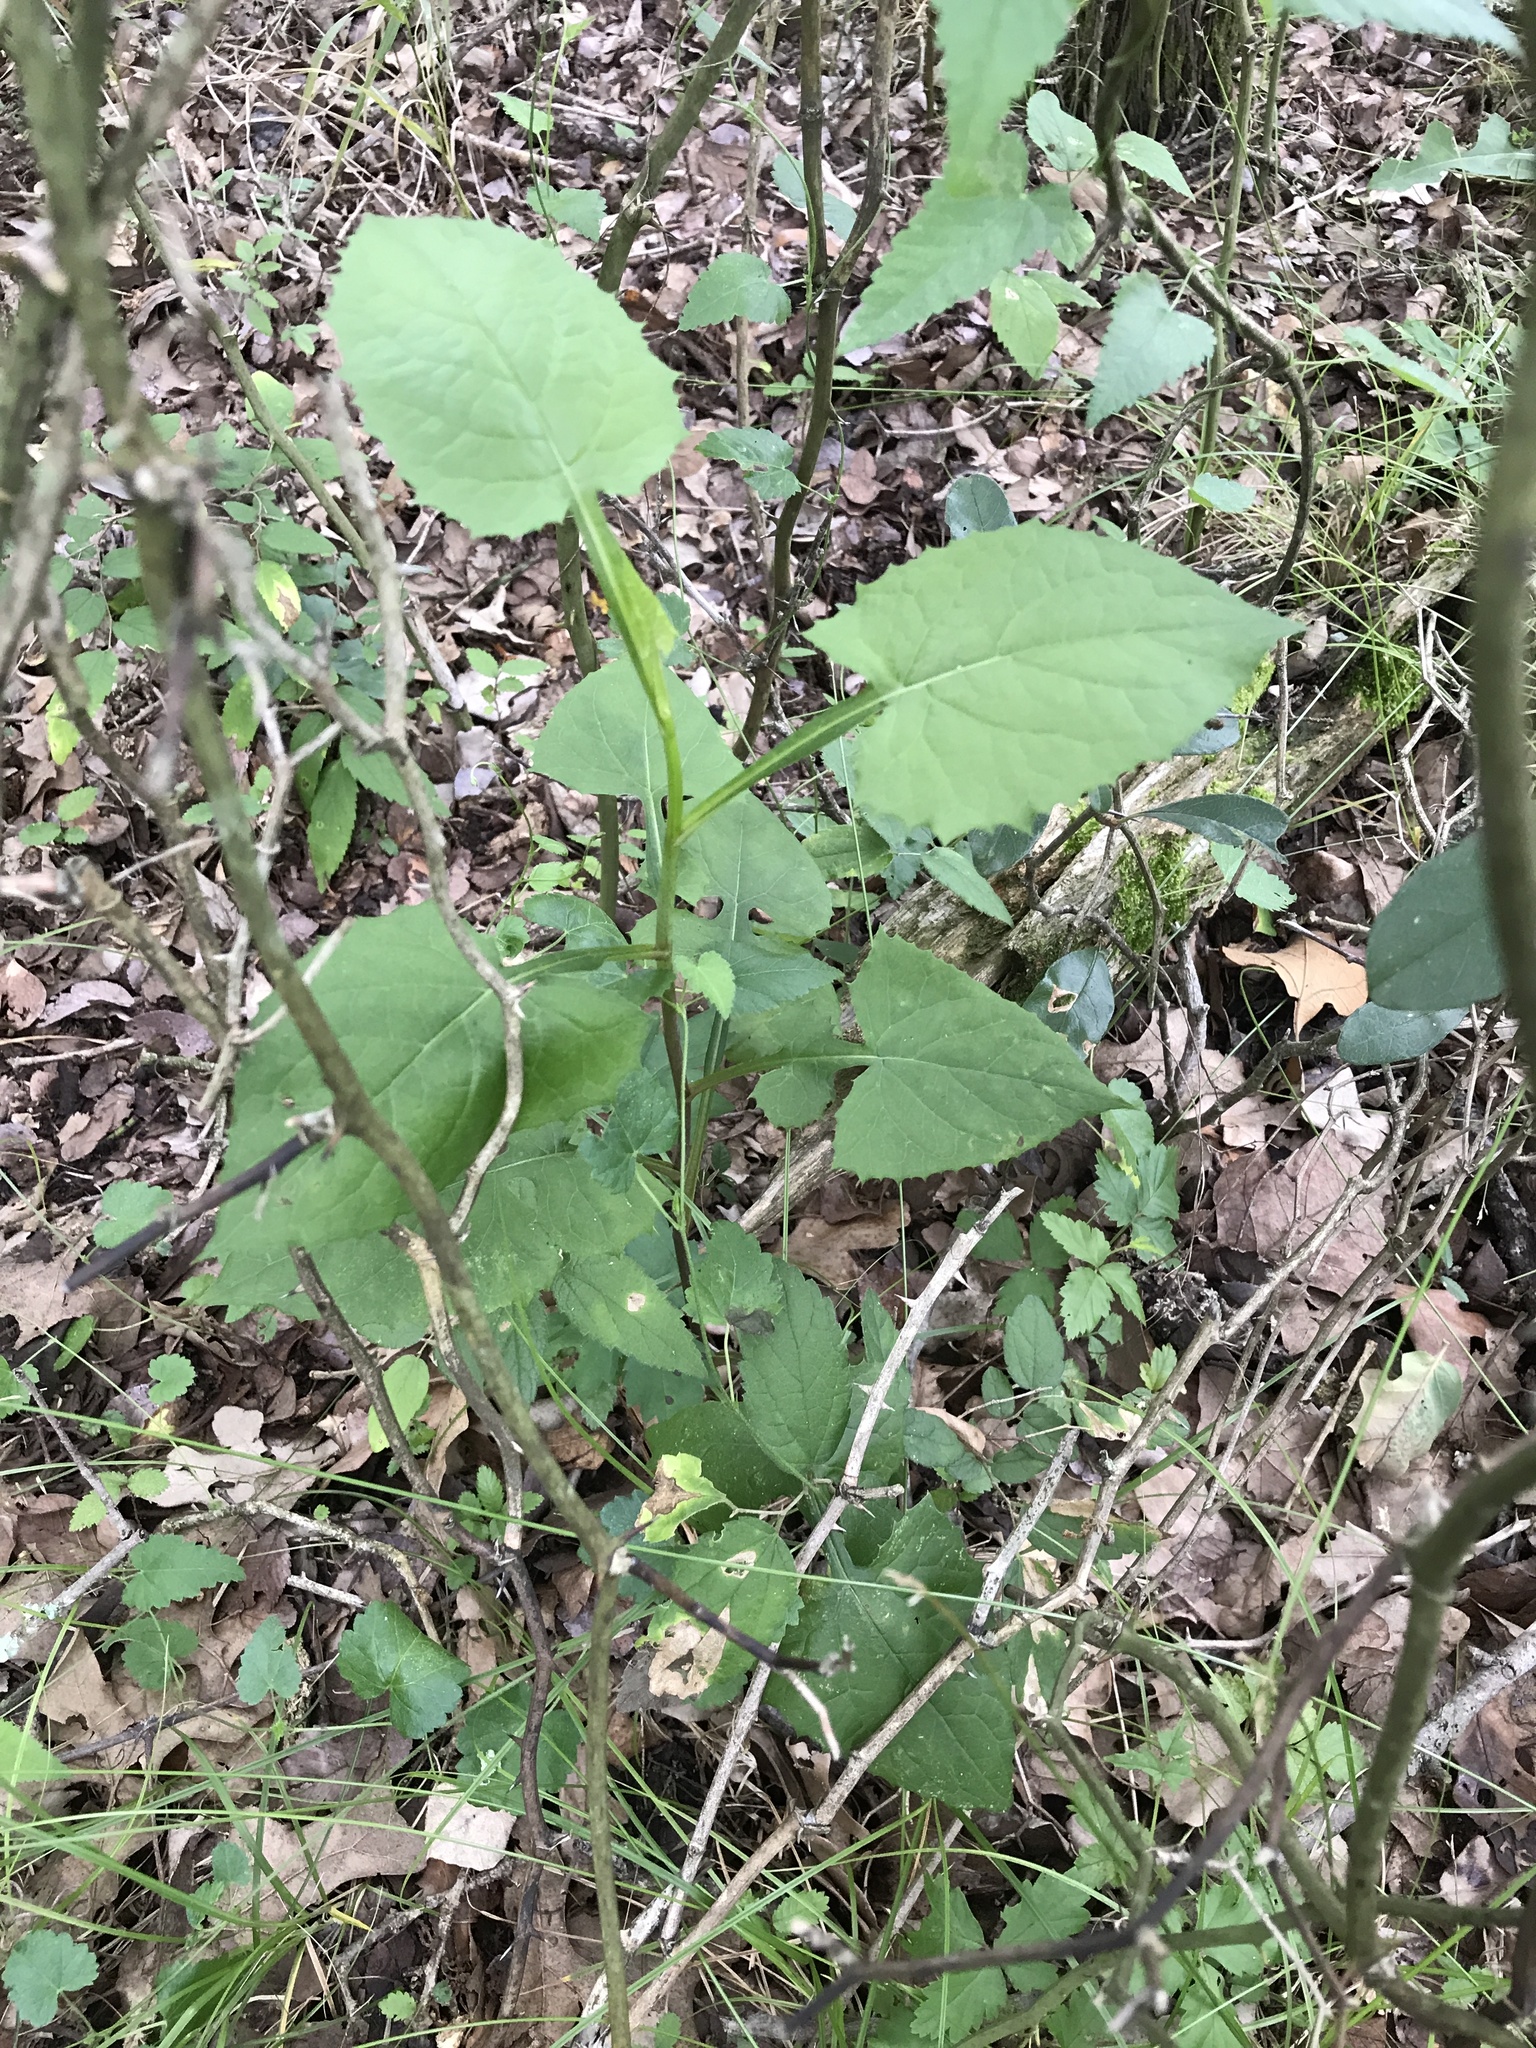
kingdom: Plantae
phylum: Tracheophyta
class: Magnoliopsida
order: Asterales
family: Asteraceae
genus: Lactuca
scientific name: Lactuca floridana
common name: Woodland lettuce
